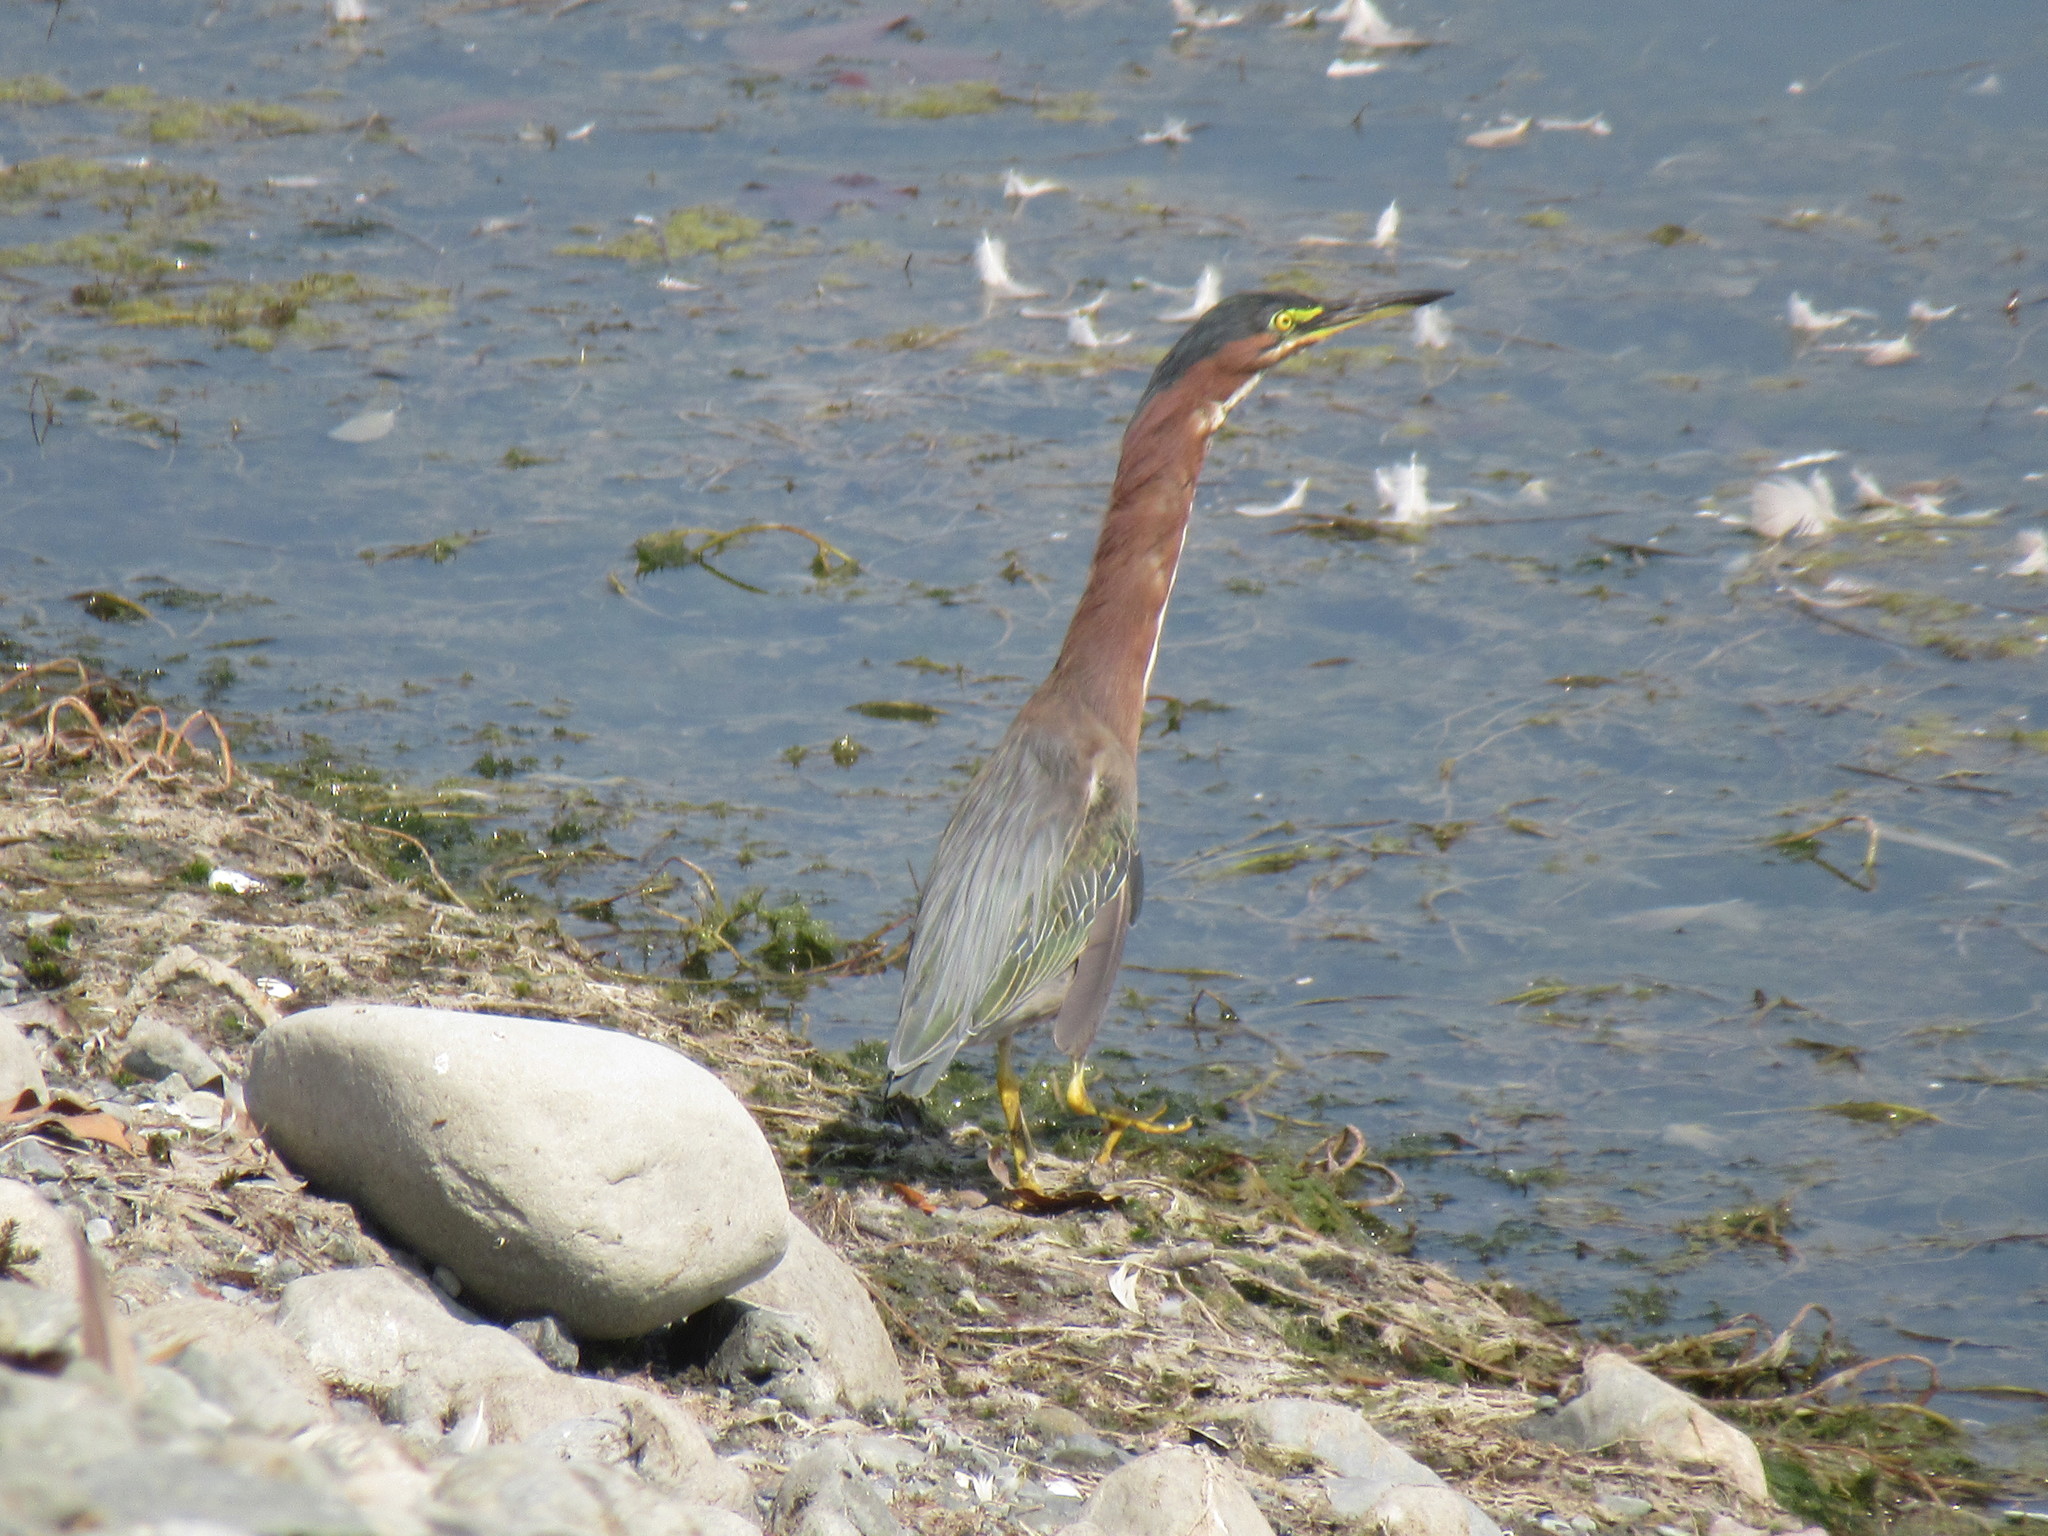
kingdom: Animalia
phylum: Chordata
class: Aves
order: Pelecaniformes
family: Ardeidae
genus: Butorides
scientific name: Butorides virescens
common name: Green heron
